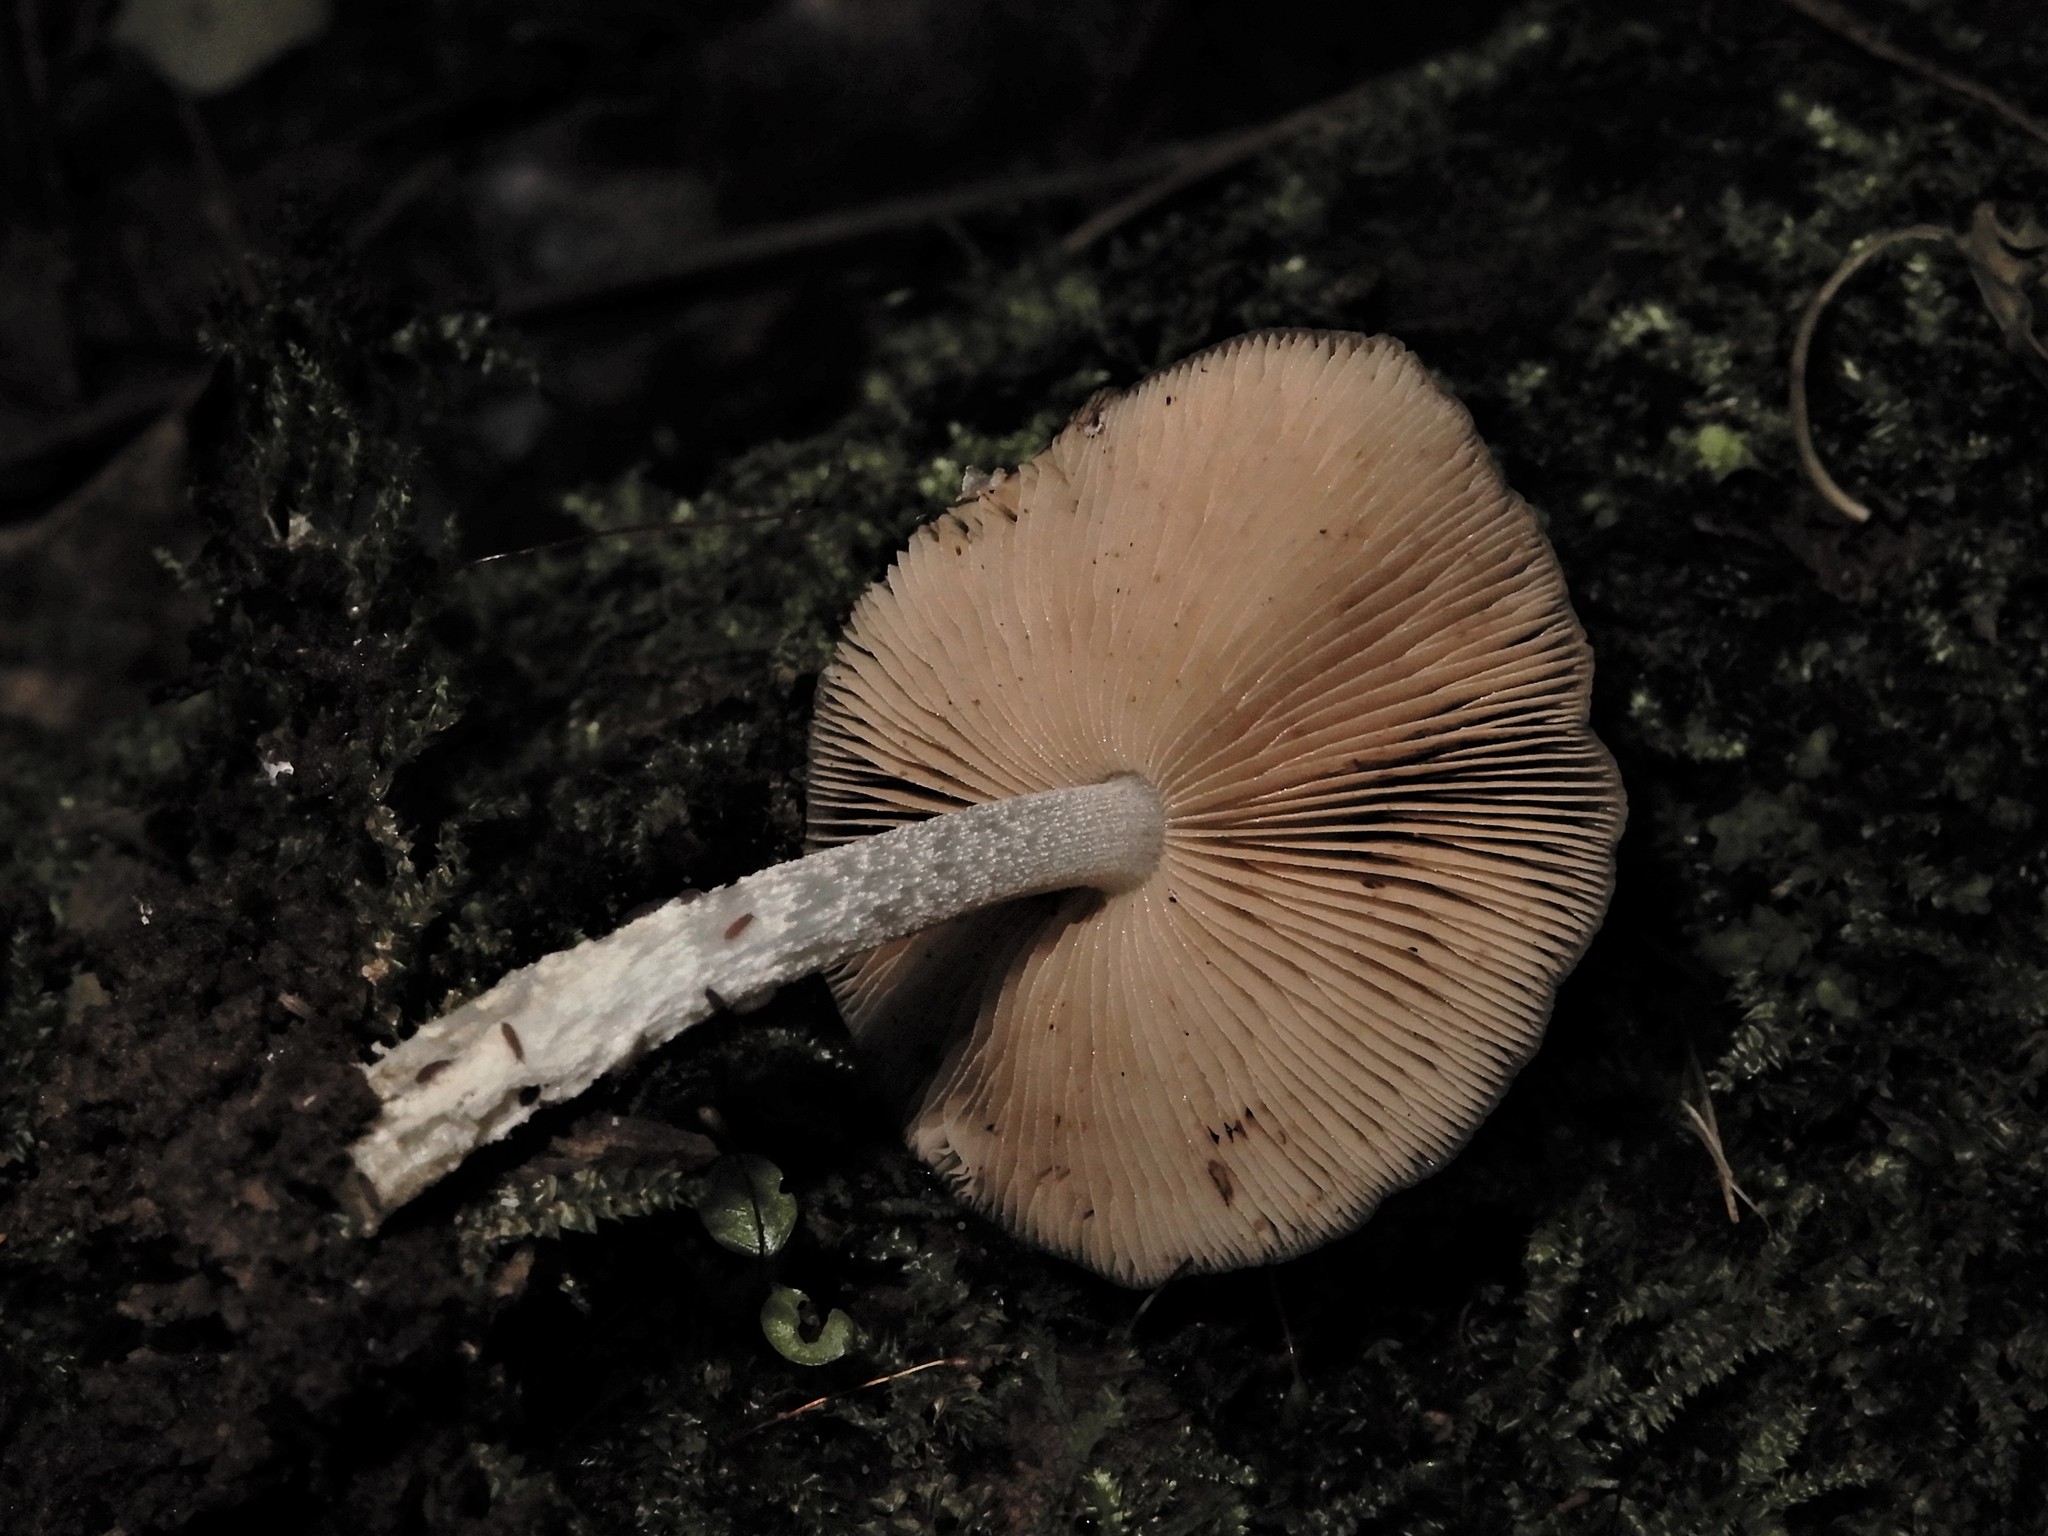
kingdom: Fungi
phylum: Basidiomycota
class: Agaricomycetes
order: Agaricales
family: Bolbitiaceae
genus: Bolbitius
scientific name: Bolbitius muscicola
